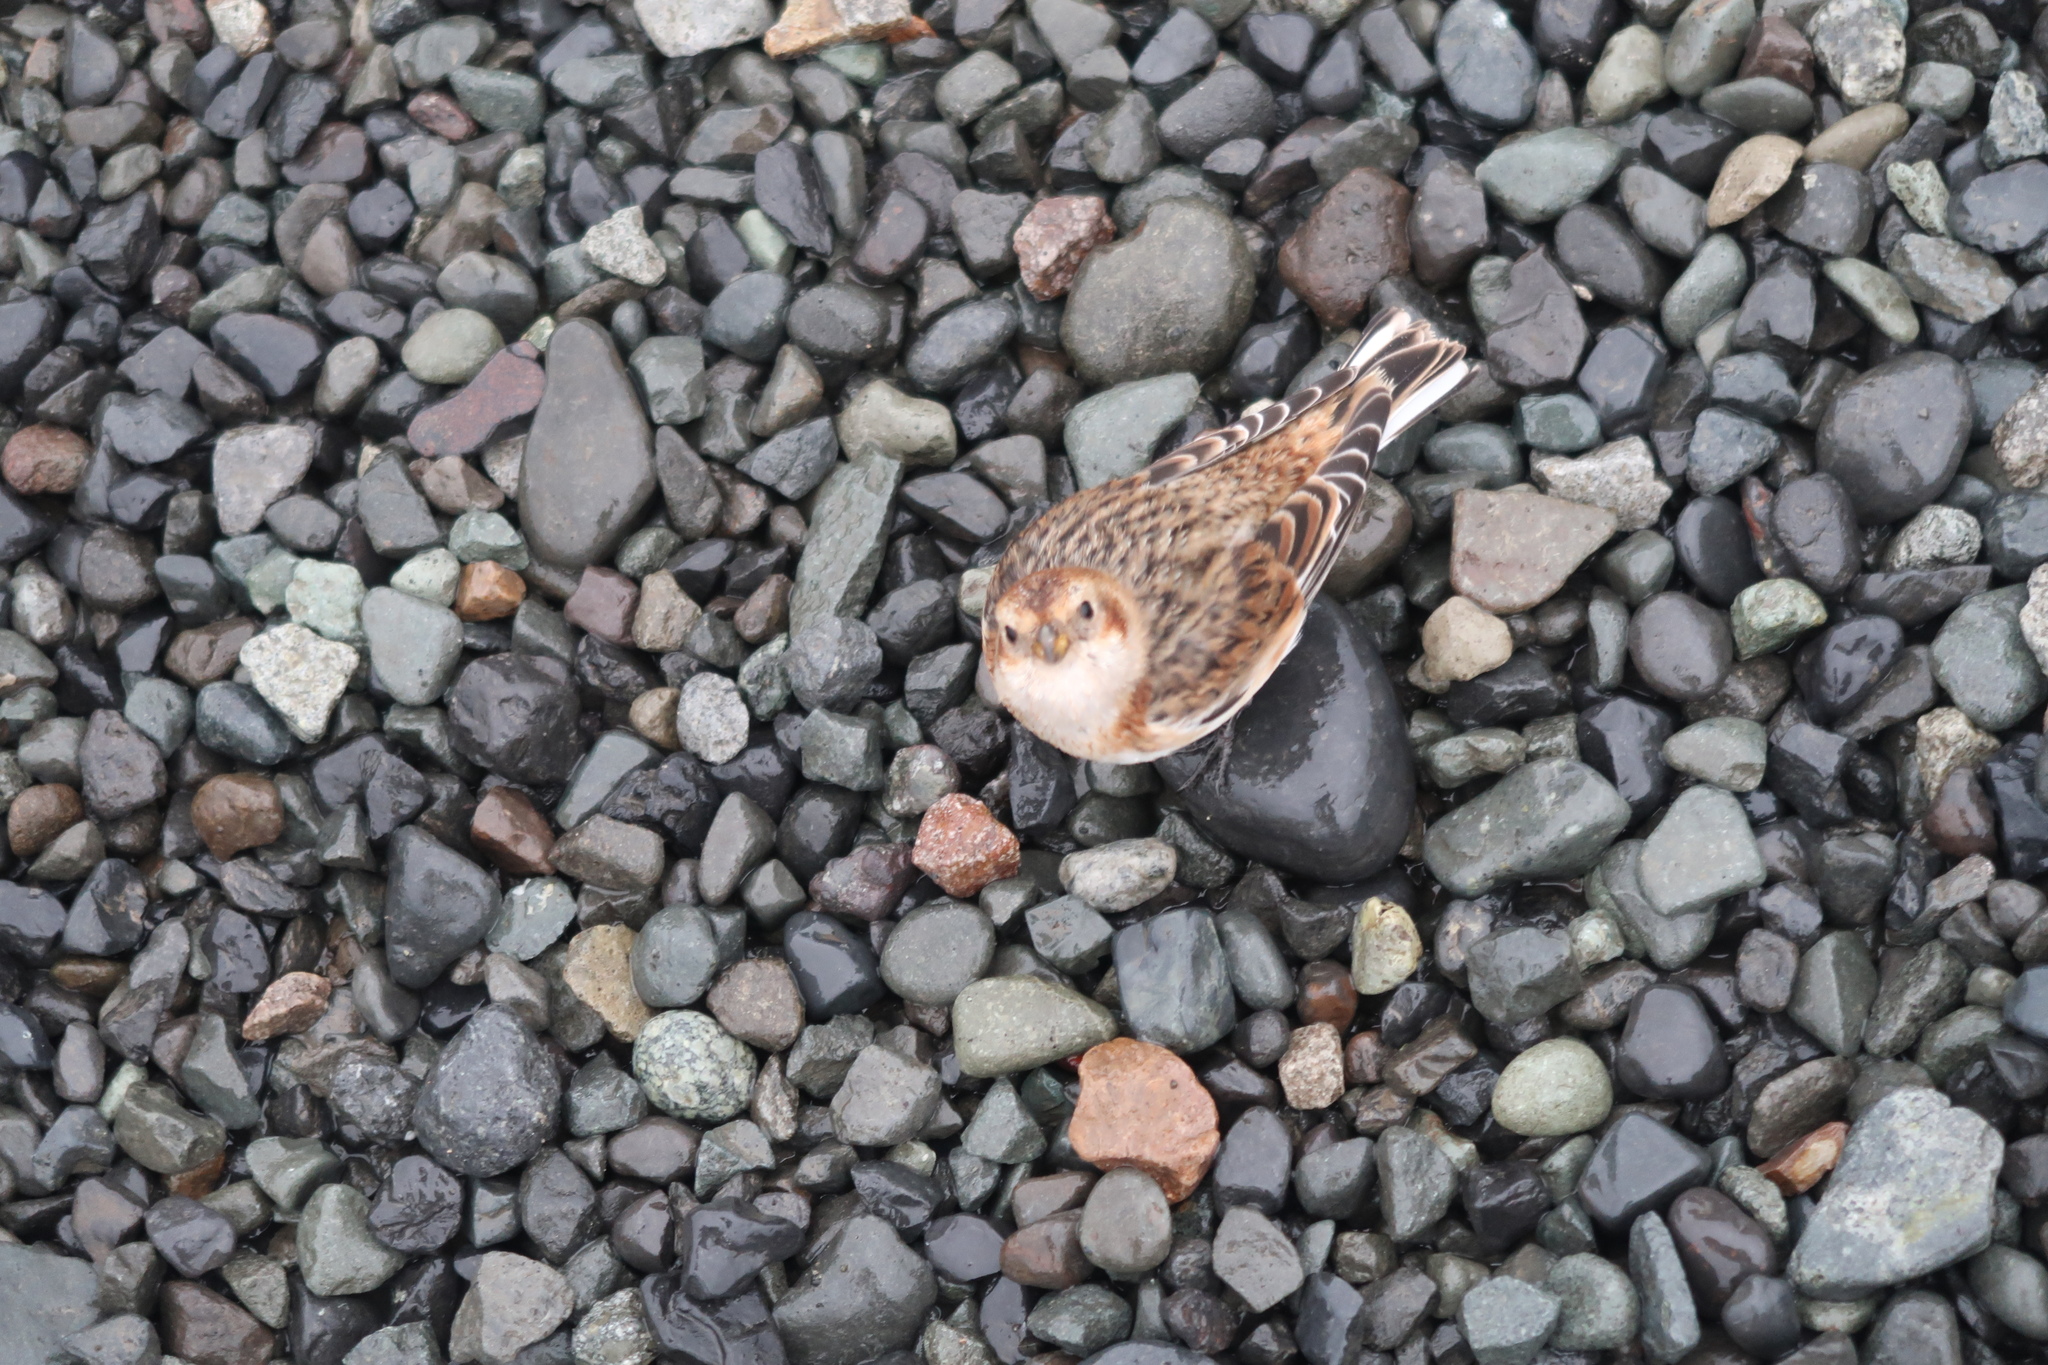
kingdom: Animalia
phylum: Chordata
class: Aves
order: Passeriformes
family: Calcariidae
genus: Plectrophenax
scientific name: Plectrophenax nivalis
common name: Snow bunting
